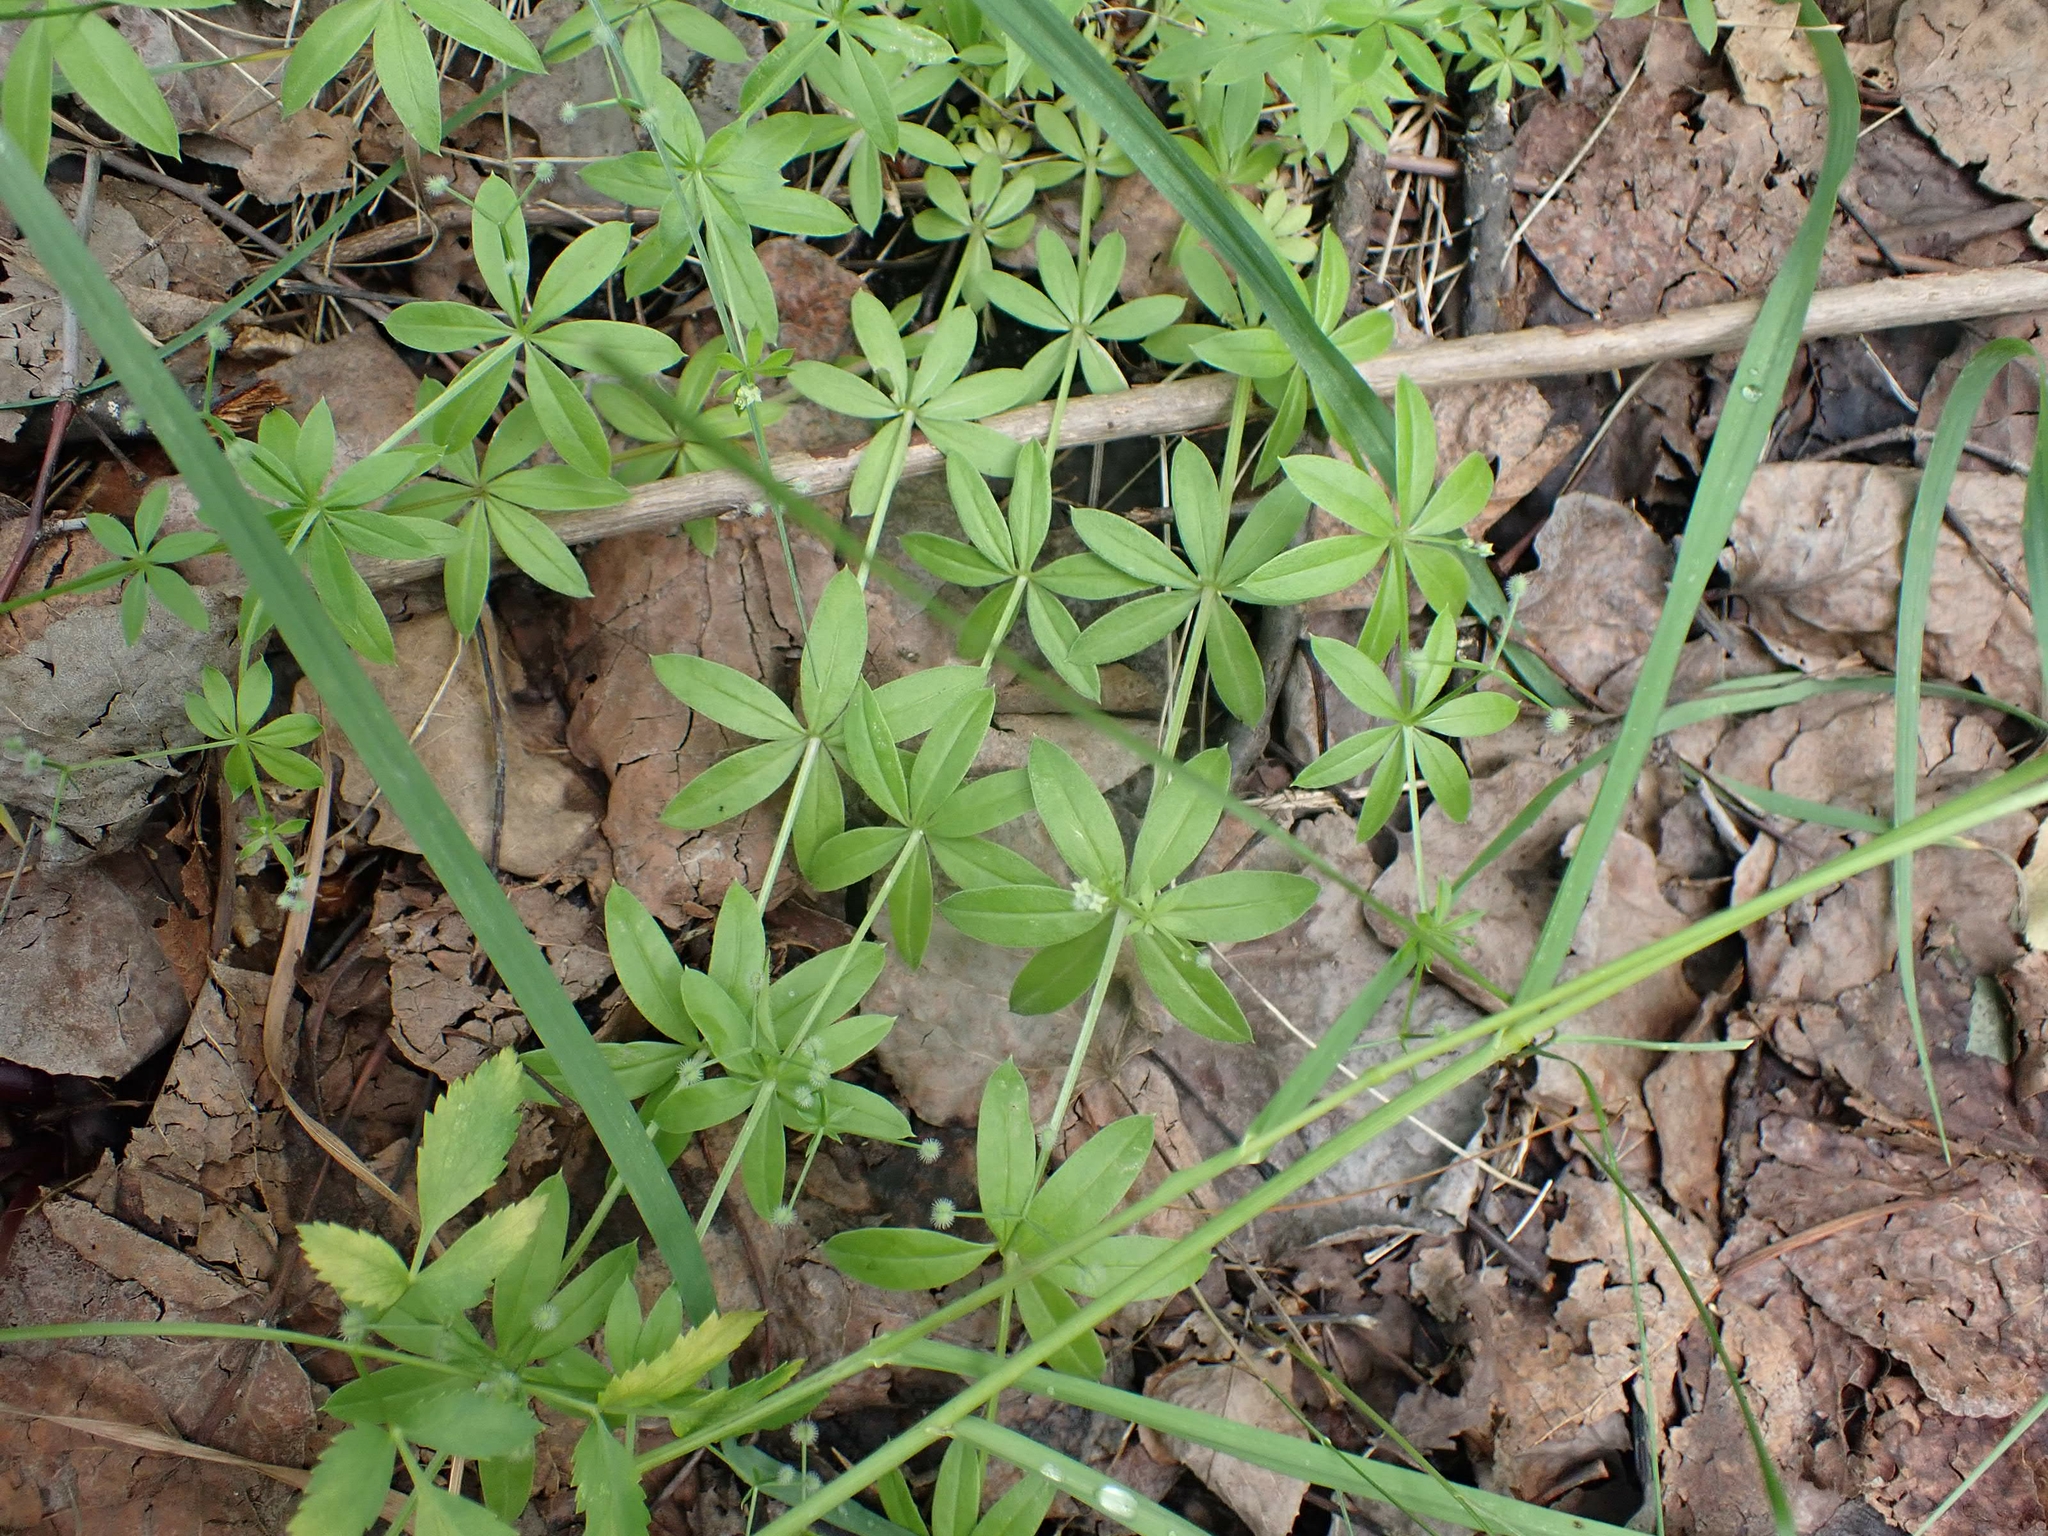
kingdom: Plantae
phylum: Tracheophyta
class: Magnoliopsida
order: Gentianales
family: Rubiaceae
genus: Galium
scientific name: Galium triflorum
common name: Fragrant bedstraw
